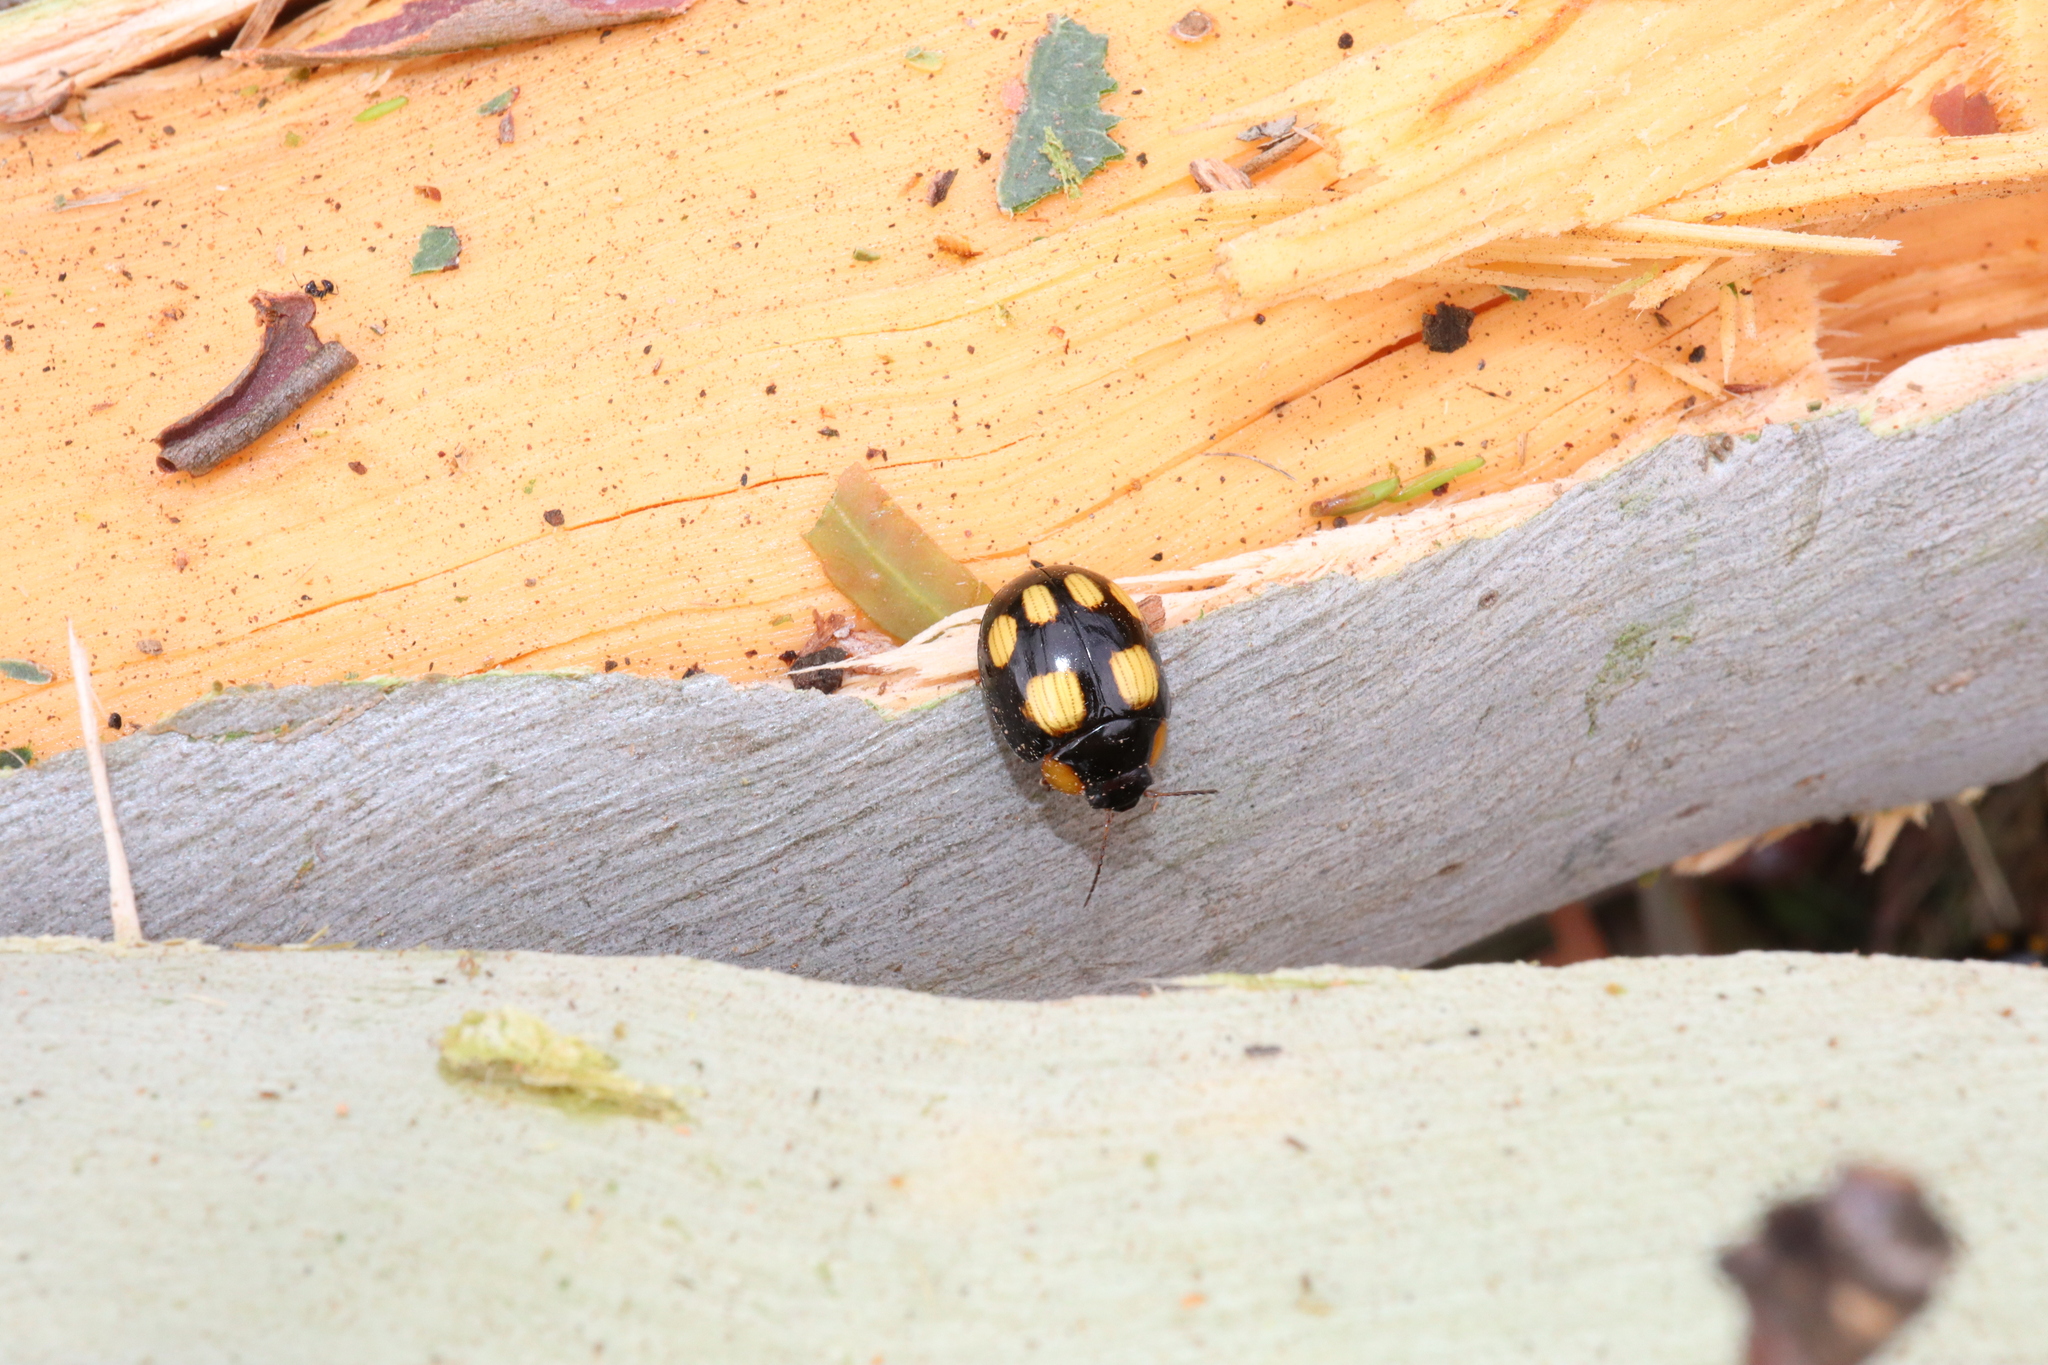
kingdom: Animalia
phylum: Arthropoda
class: Insecta
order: Coleoptera
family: Chrysomelidae
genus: Paropsisterna
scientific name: Paropsisterna
